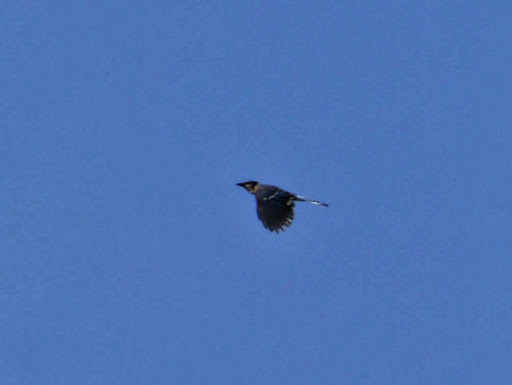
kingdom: Animalia
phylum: Chordata
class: Aves
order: Passeriformes
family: Corvidae
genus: Cyanocitta
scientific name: Cyanocitta cristata
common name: Blue jay
